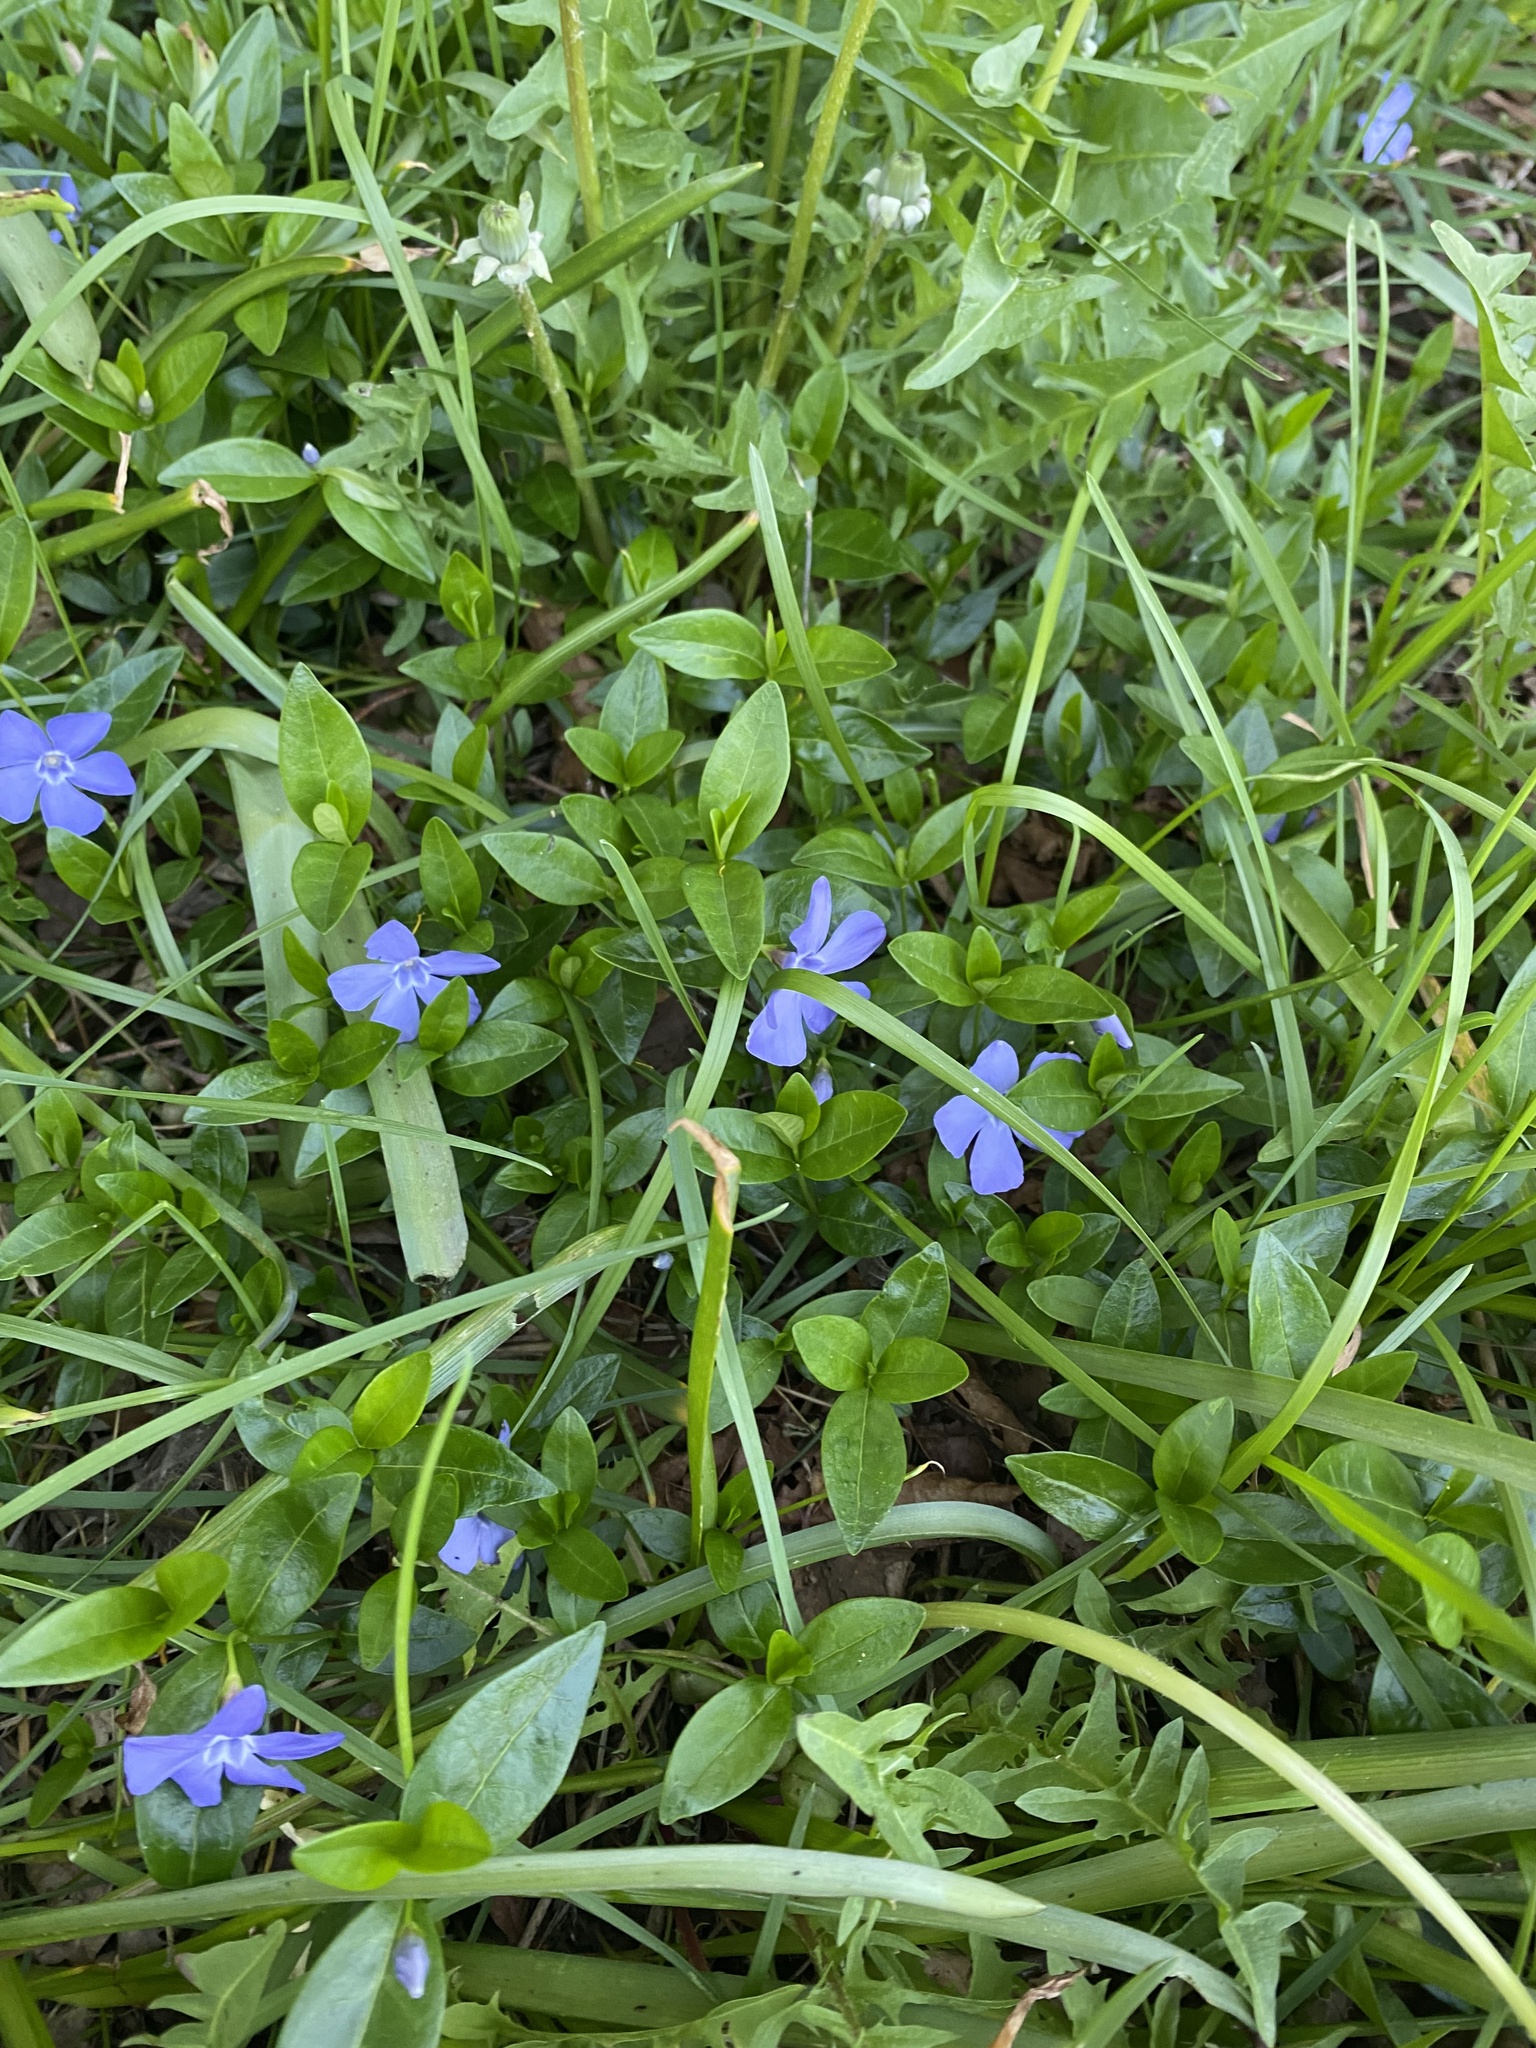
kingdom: Plantae
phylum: Tracheophyta
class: Magnoliopsida
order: Gentianales
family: Apocynaceae
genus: Vinca
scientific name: Vinca minor
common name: Lesser periwinkle
